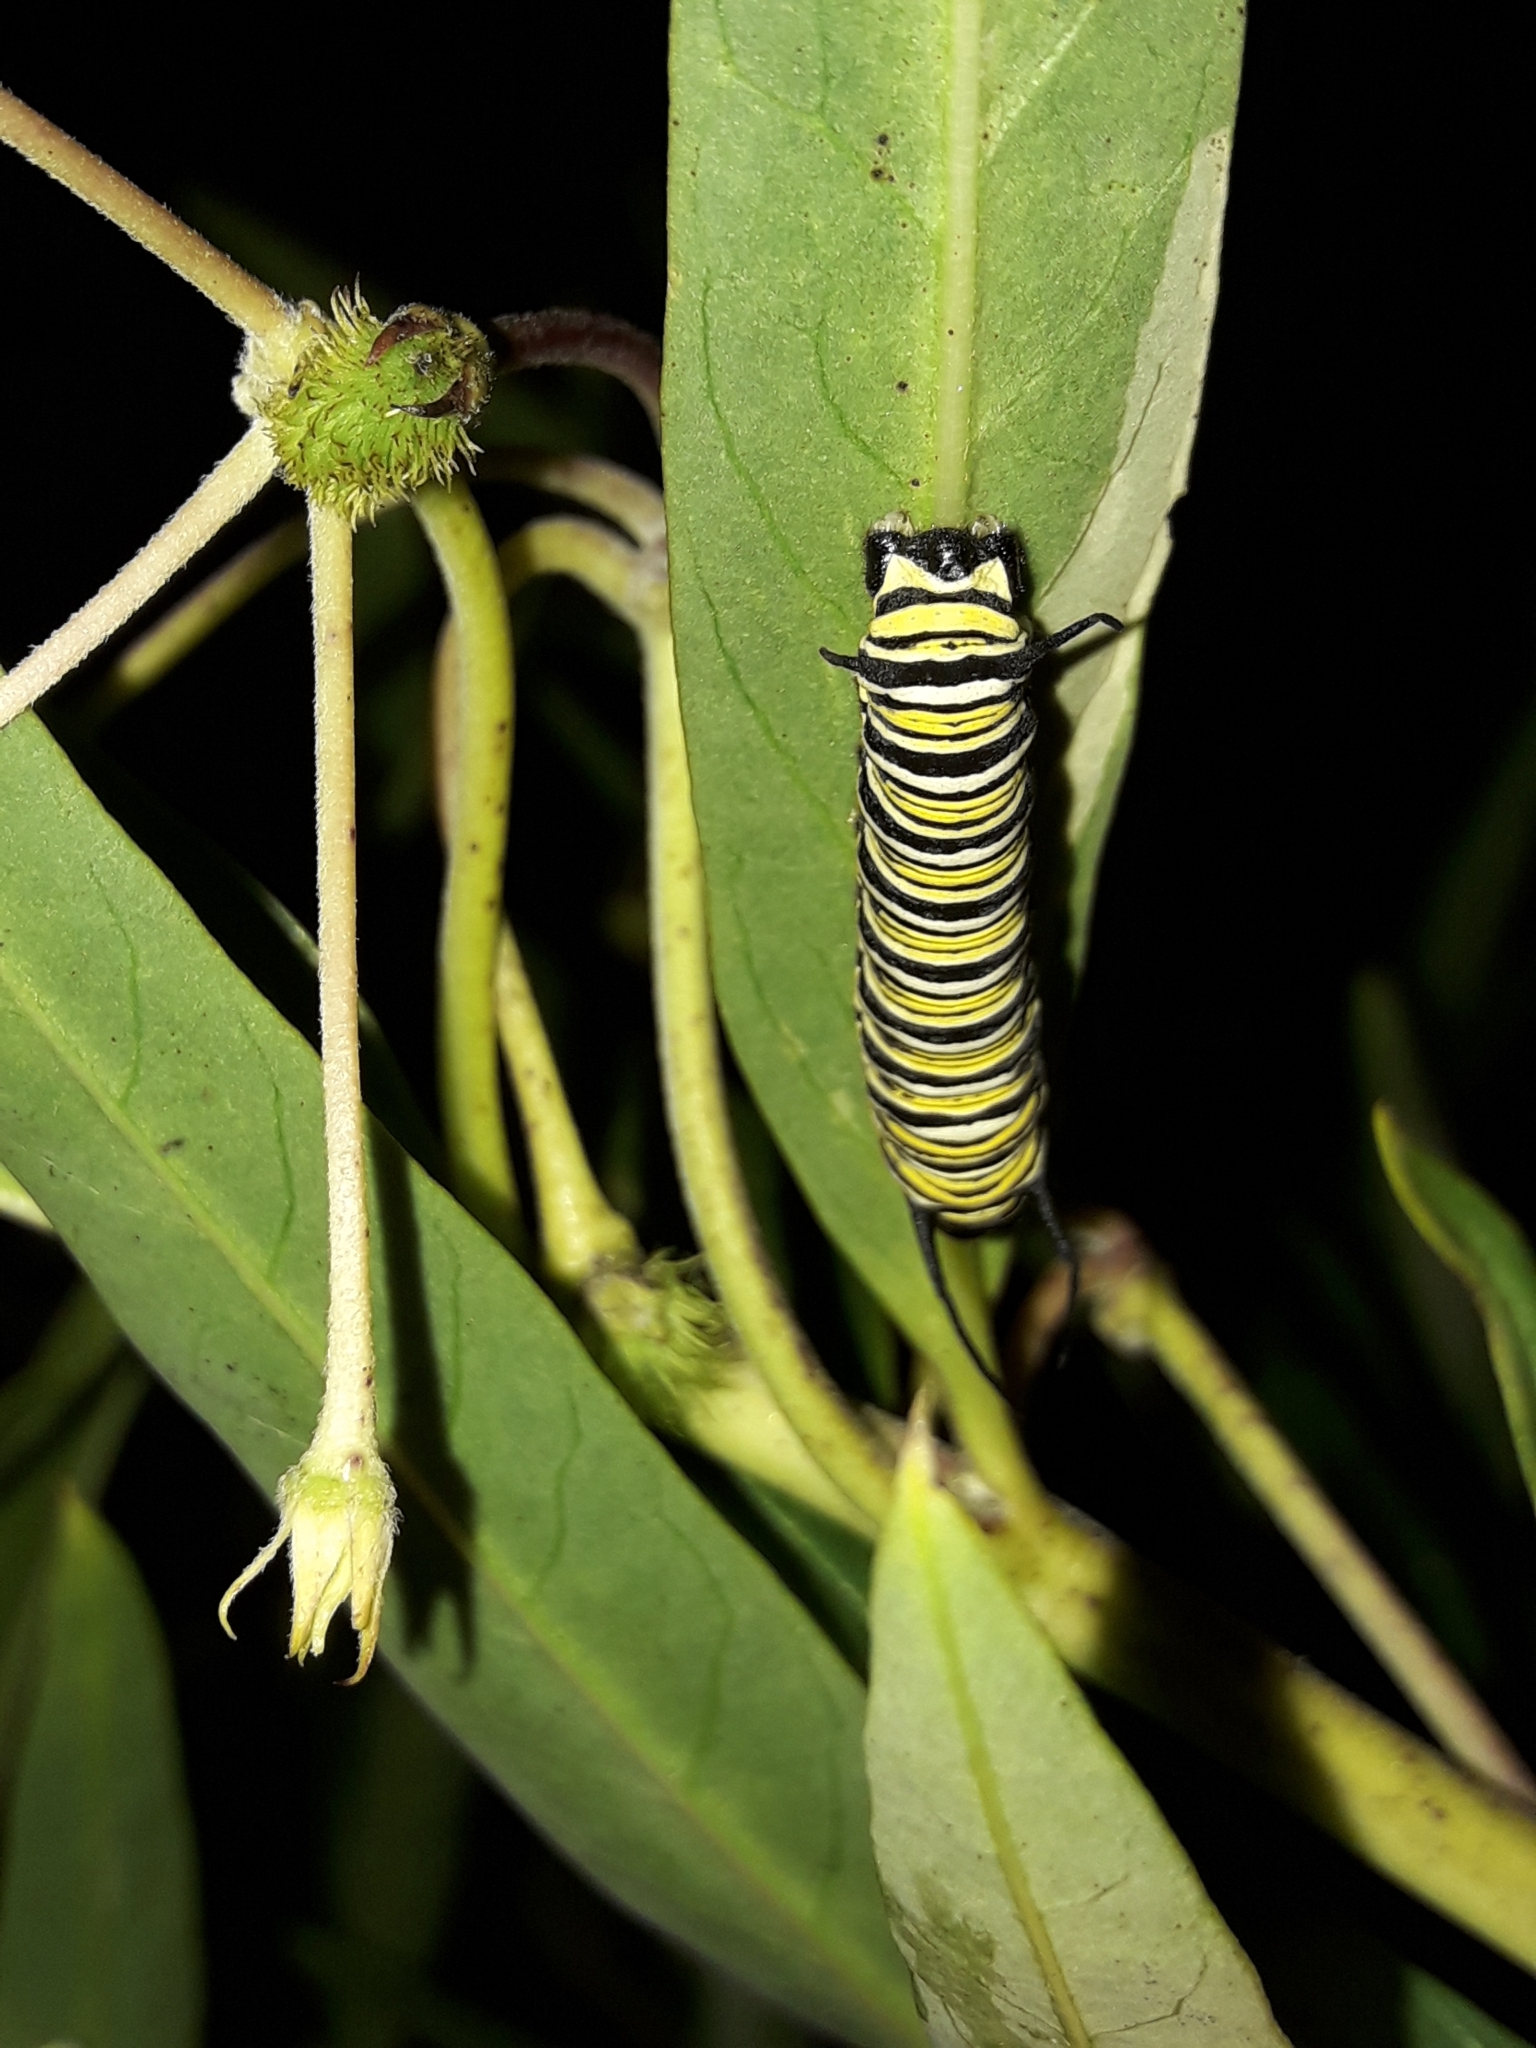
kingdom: Animalia
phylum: Arthropoda
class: Insecta
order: Lepidoptera
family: Nymphalidae
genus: Danaus
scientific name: Danaus plexippus
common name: Monarch
